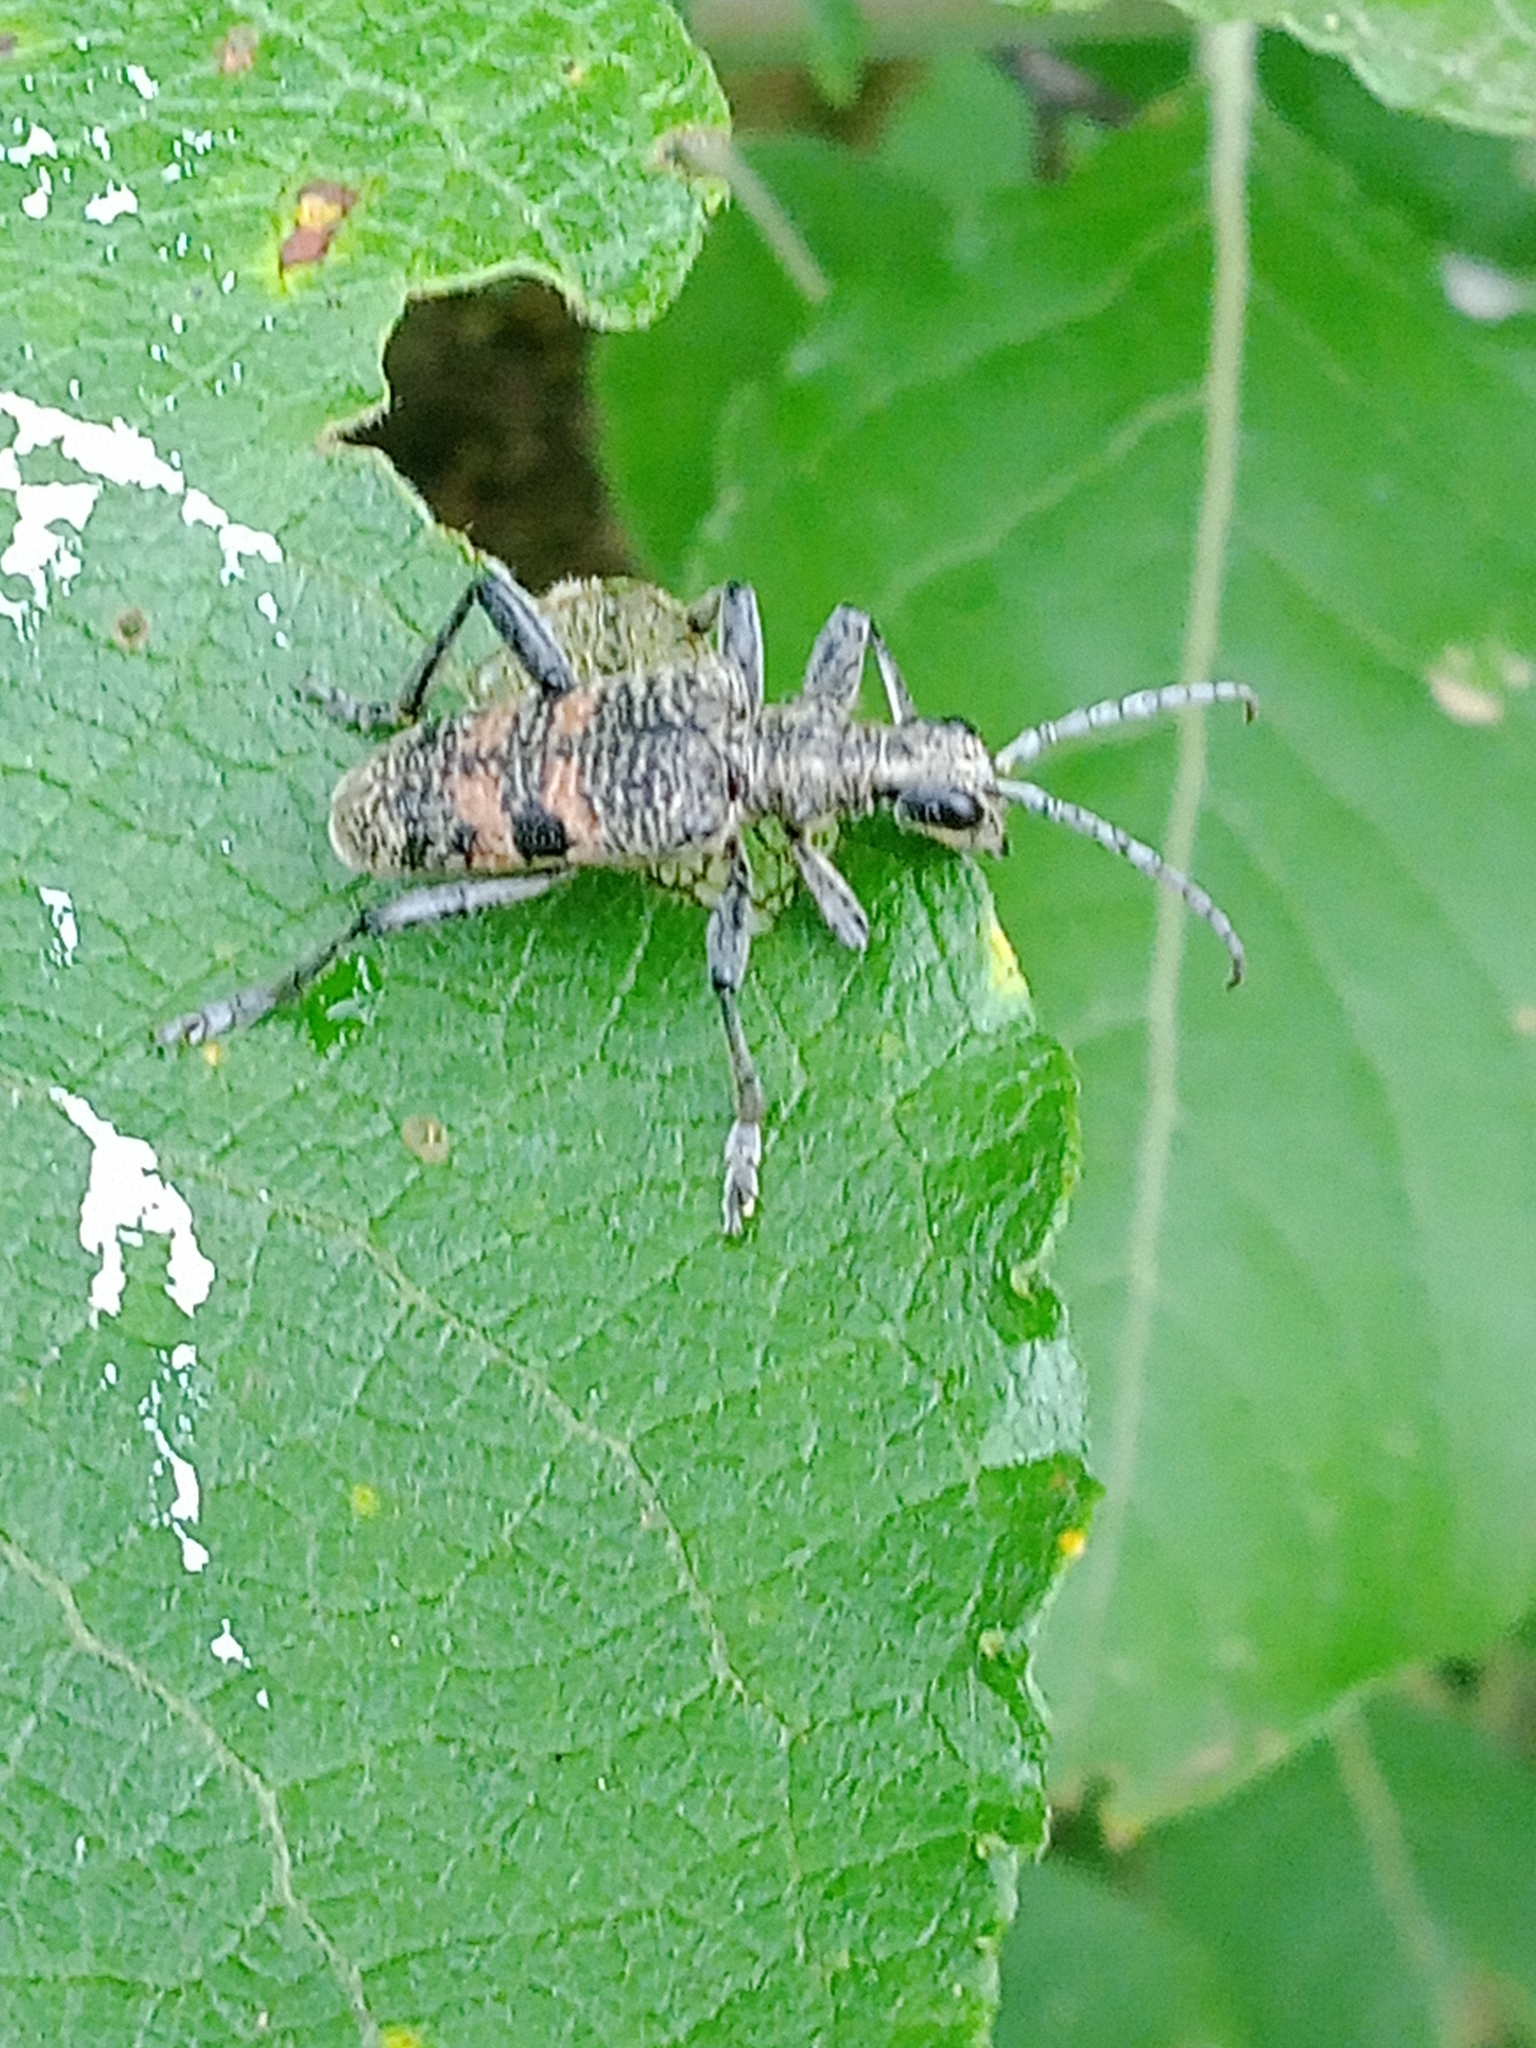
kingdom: Animalia
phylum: Arthropoda
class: Insecta
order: Coleoptera
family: Cerambycidae
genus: Rhagium
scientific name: Rhagium mordax
